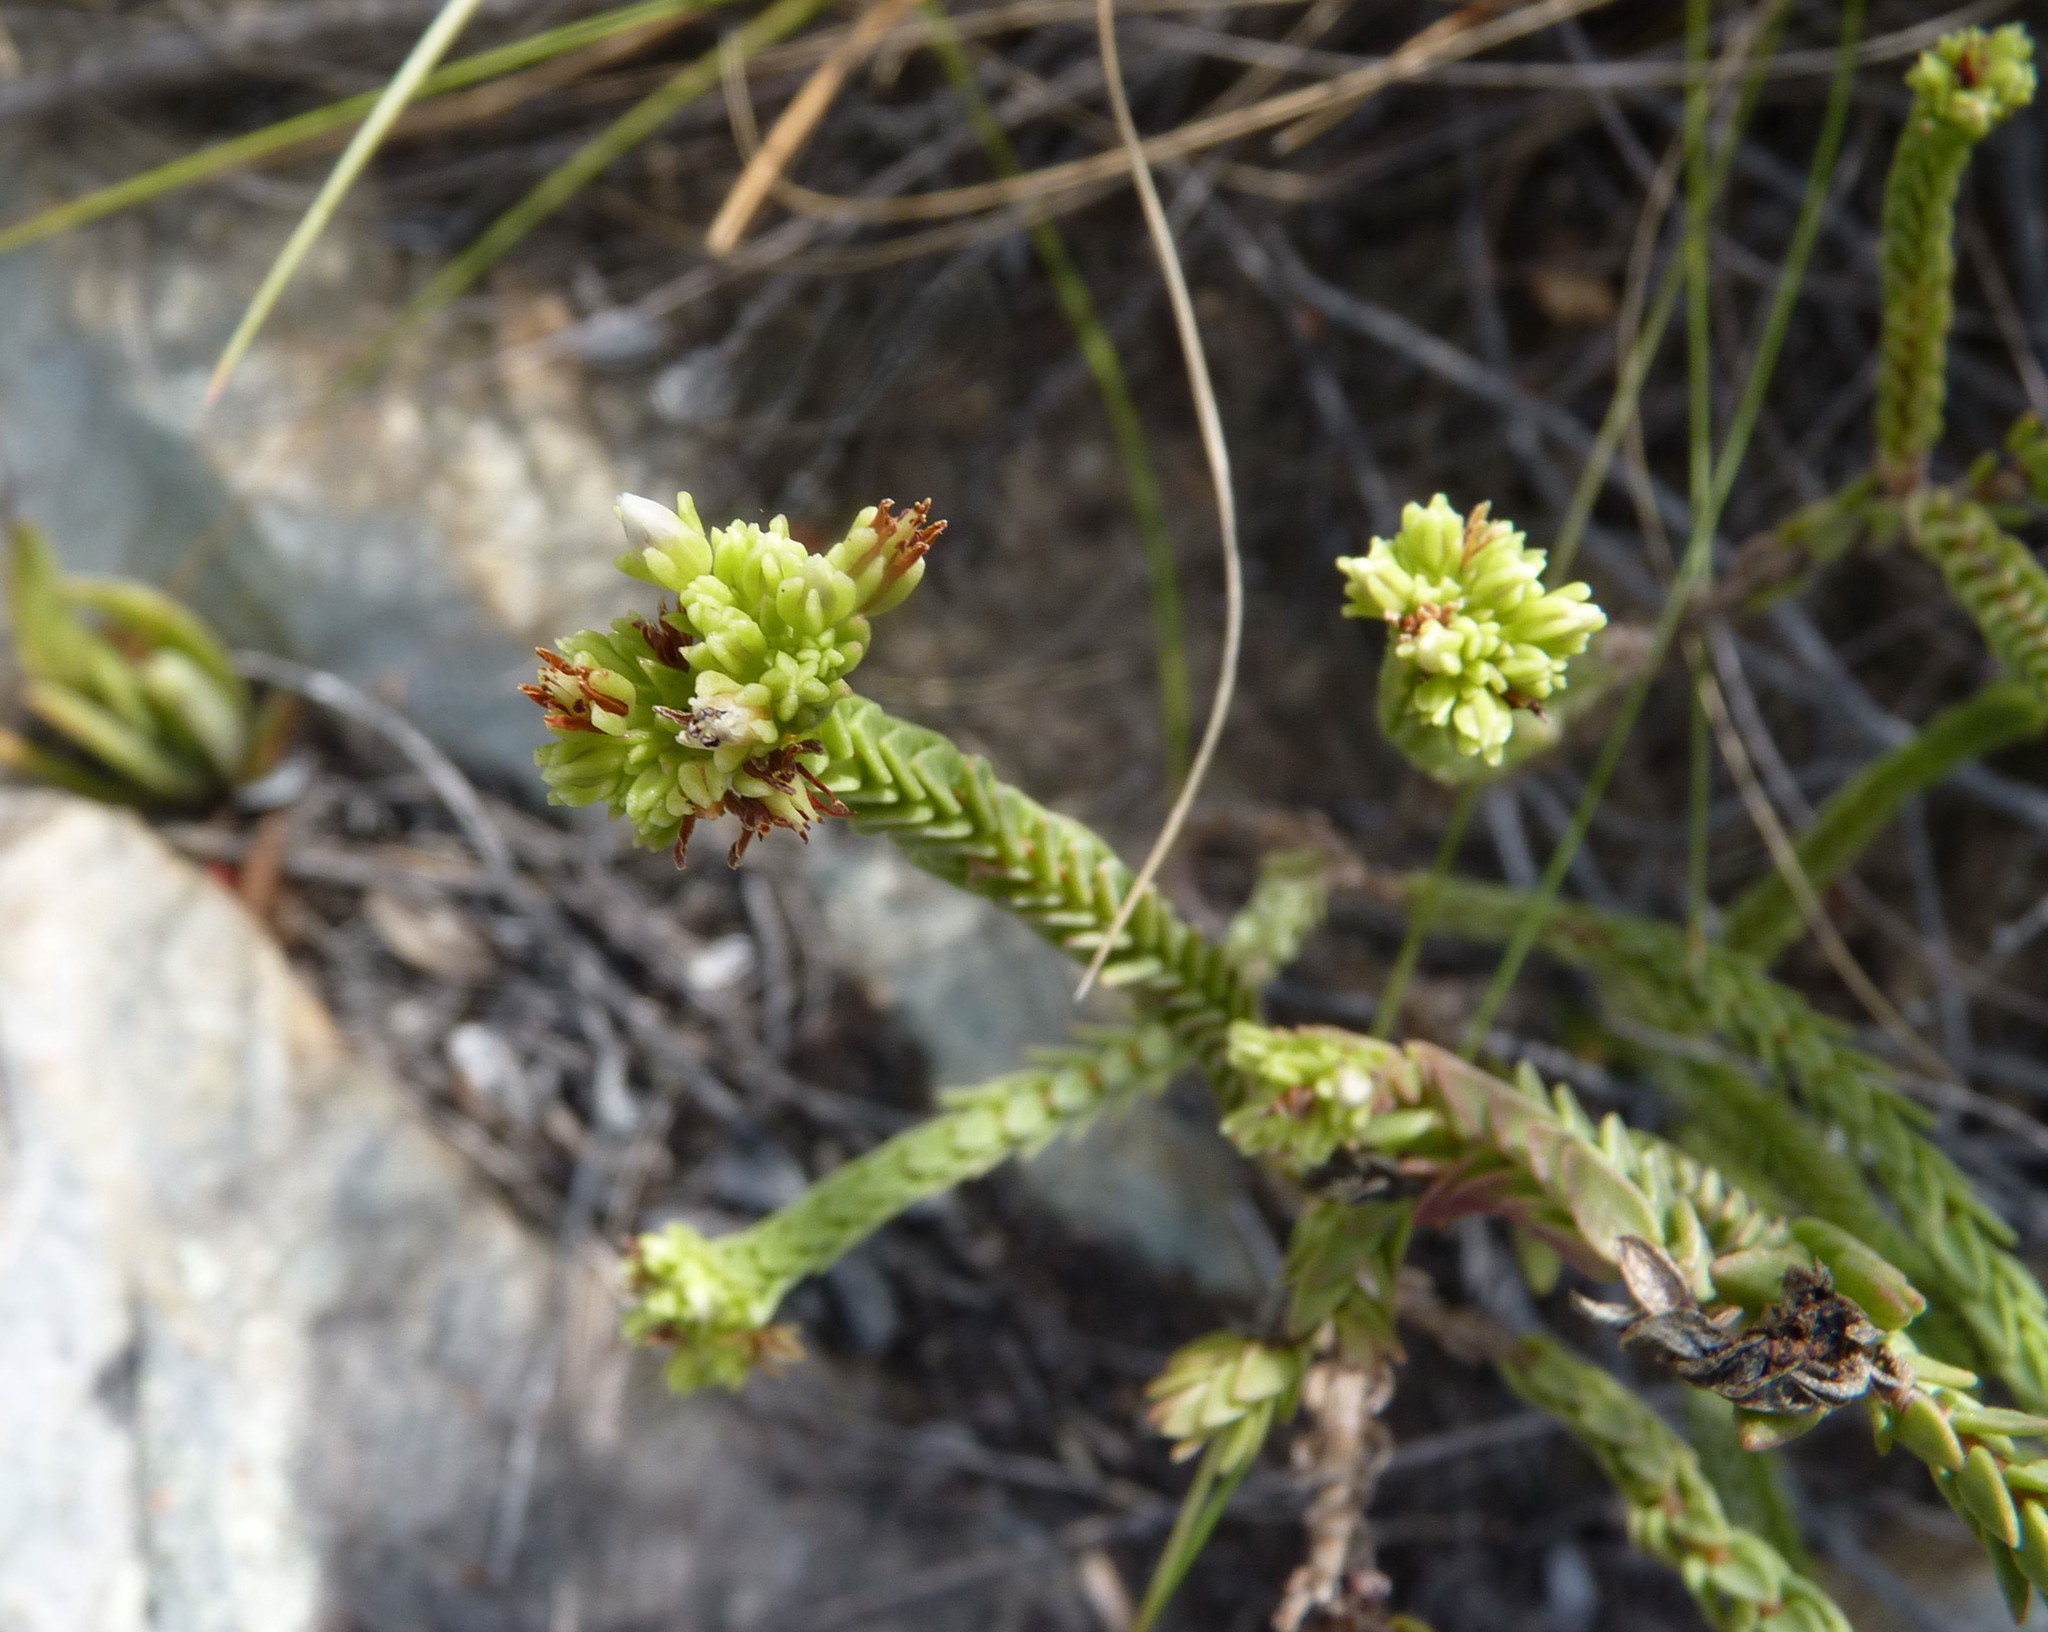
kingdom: Plantae
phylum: Tracheophyta
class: Magnoliopsida
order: Saxifragales
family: Crassulaceae
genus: Crassula
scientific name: Crassula ericoides
